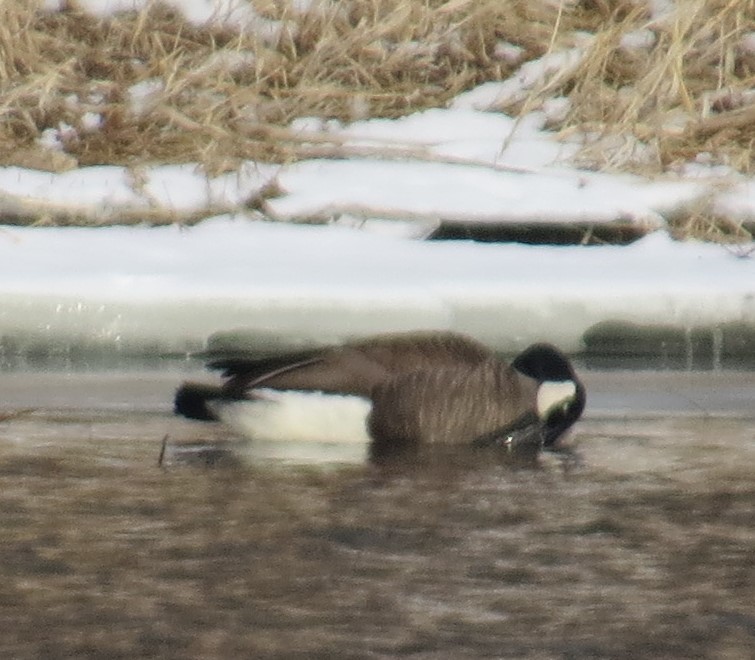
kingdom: Animalia
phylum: Chordata
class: Aves
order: Anseriformes
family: Anatidae
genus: Branta
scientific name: Branta canadensis
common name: Canada goose
